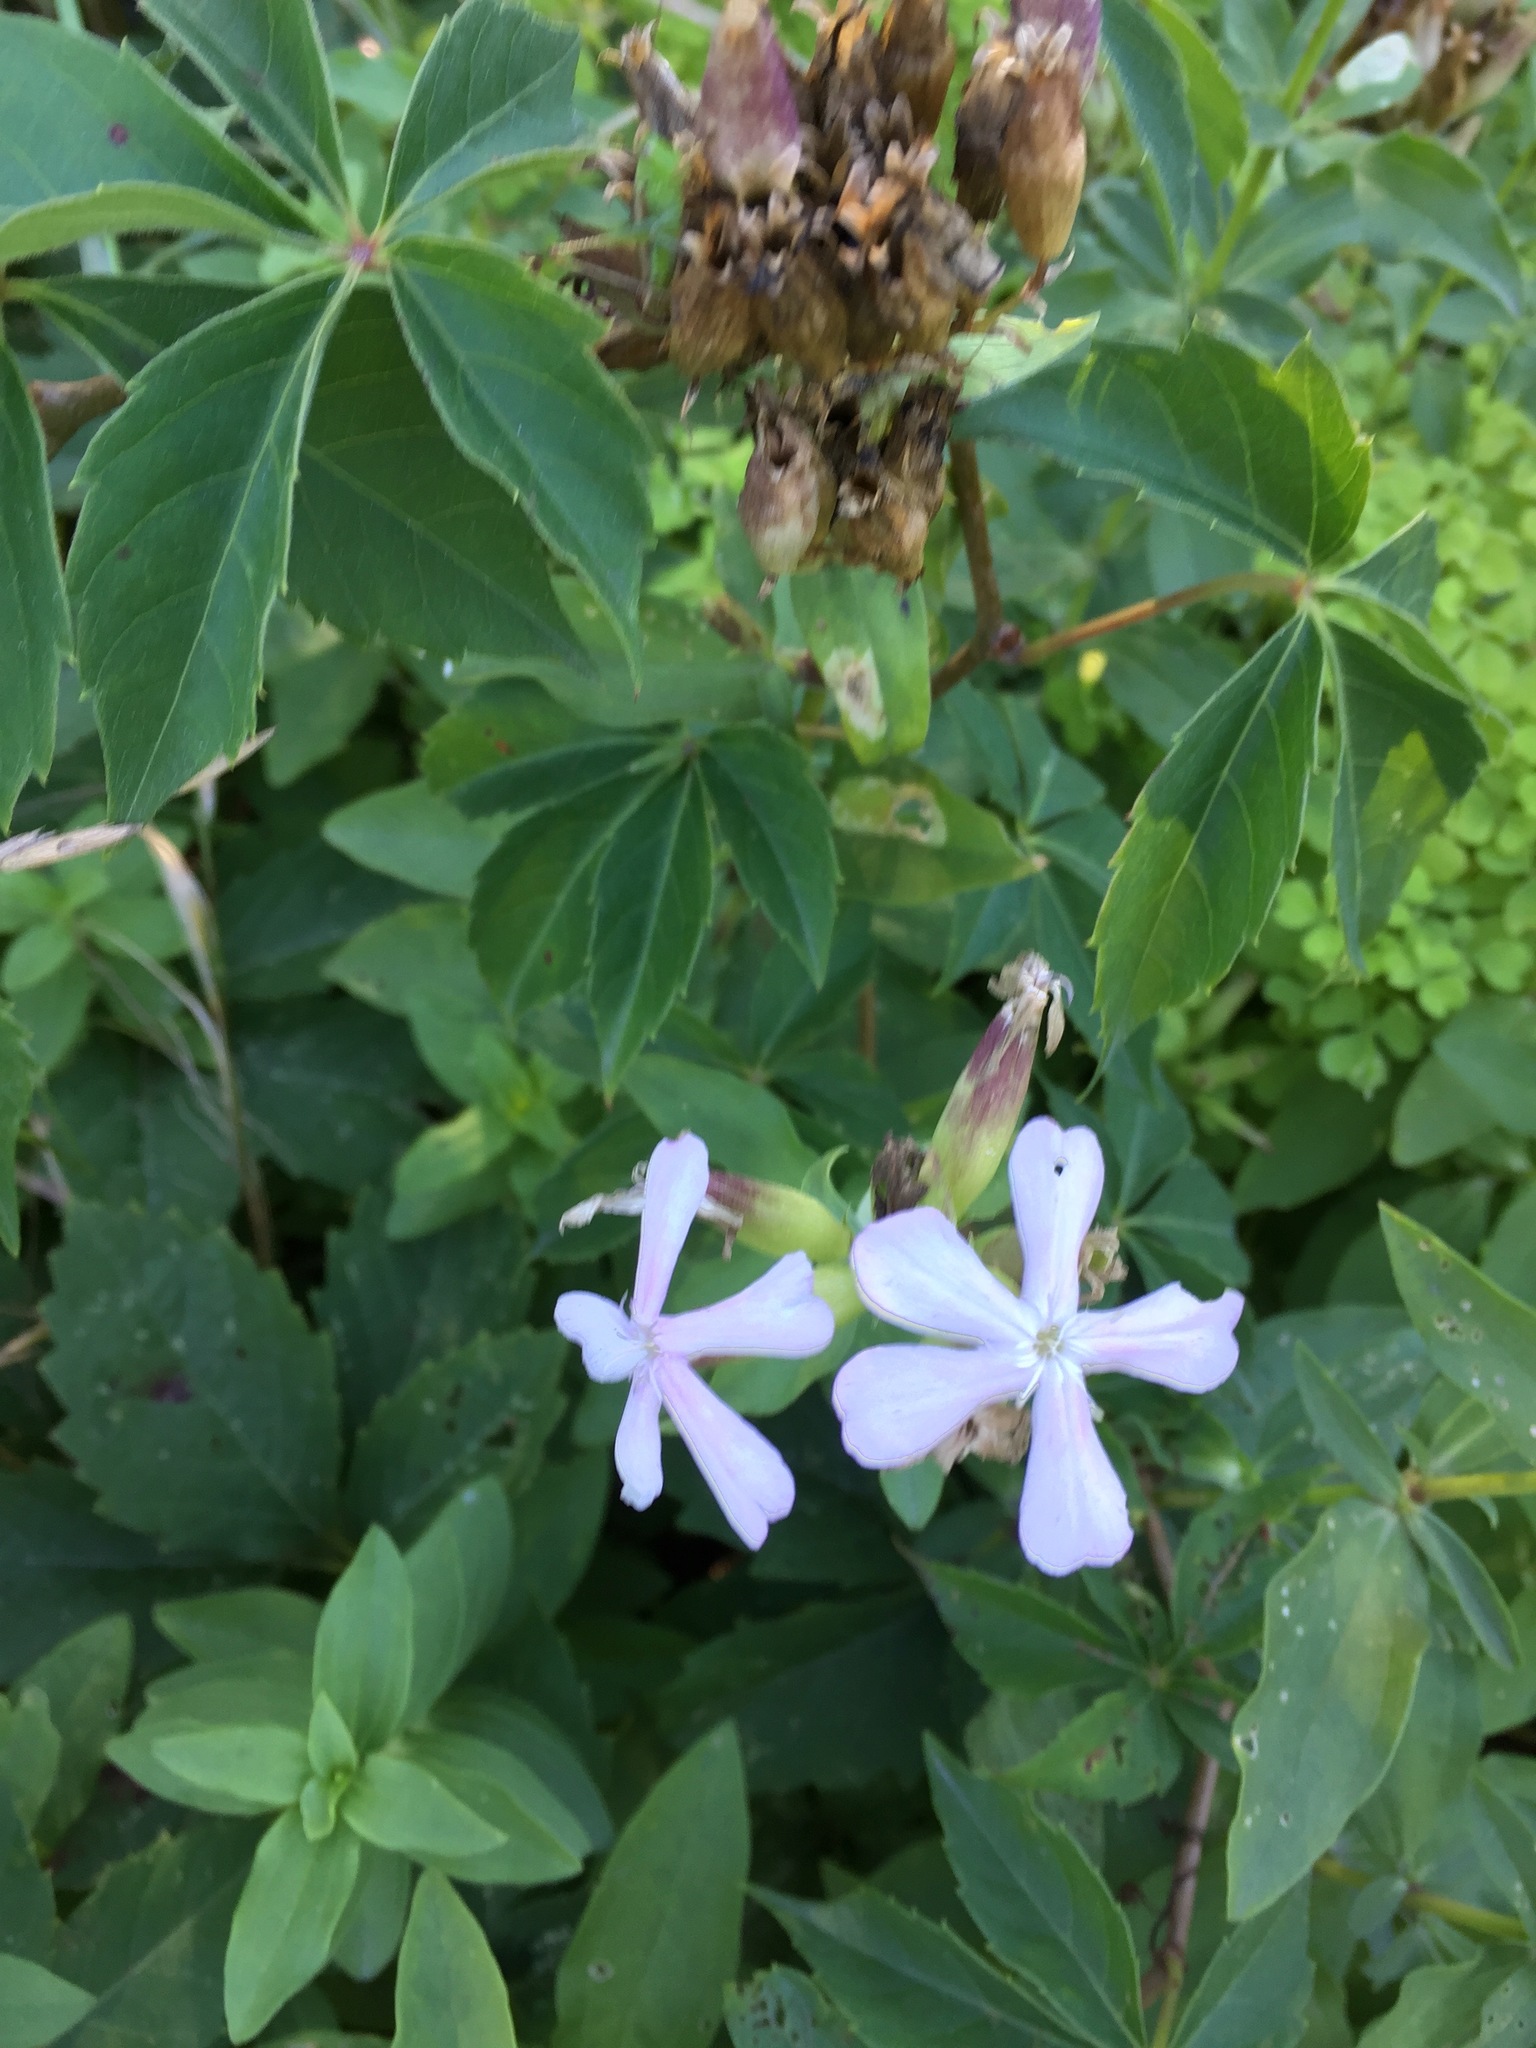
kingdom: Plantae
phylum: Tracheophyta
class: Magnoliopsida
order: Caryophyllales
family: Caryophyllaceae
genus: Saponaria
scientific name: Saponaria officinalis
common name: Soapwort
